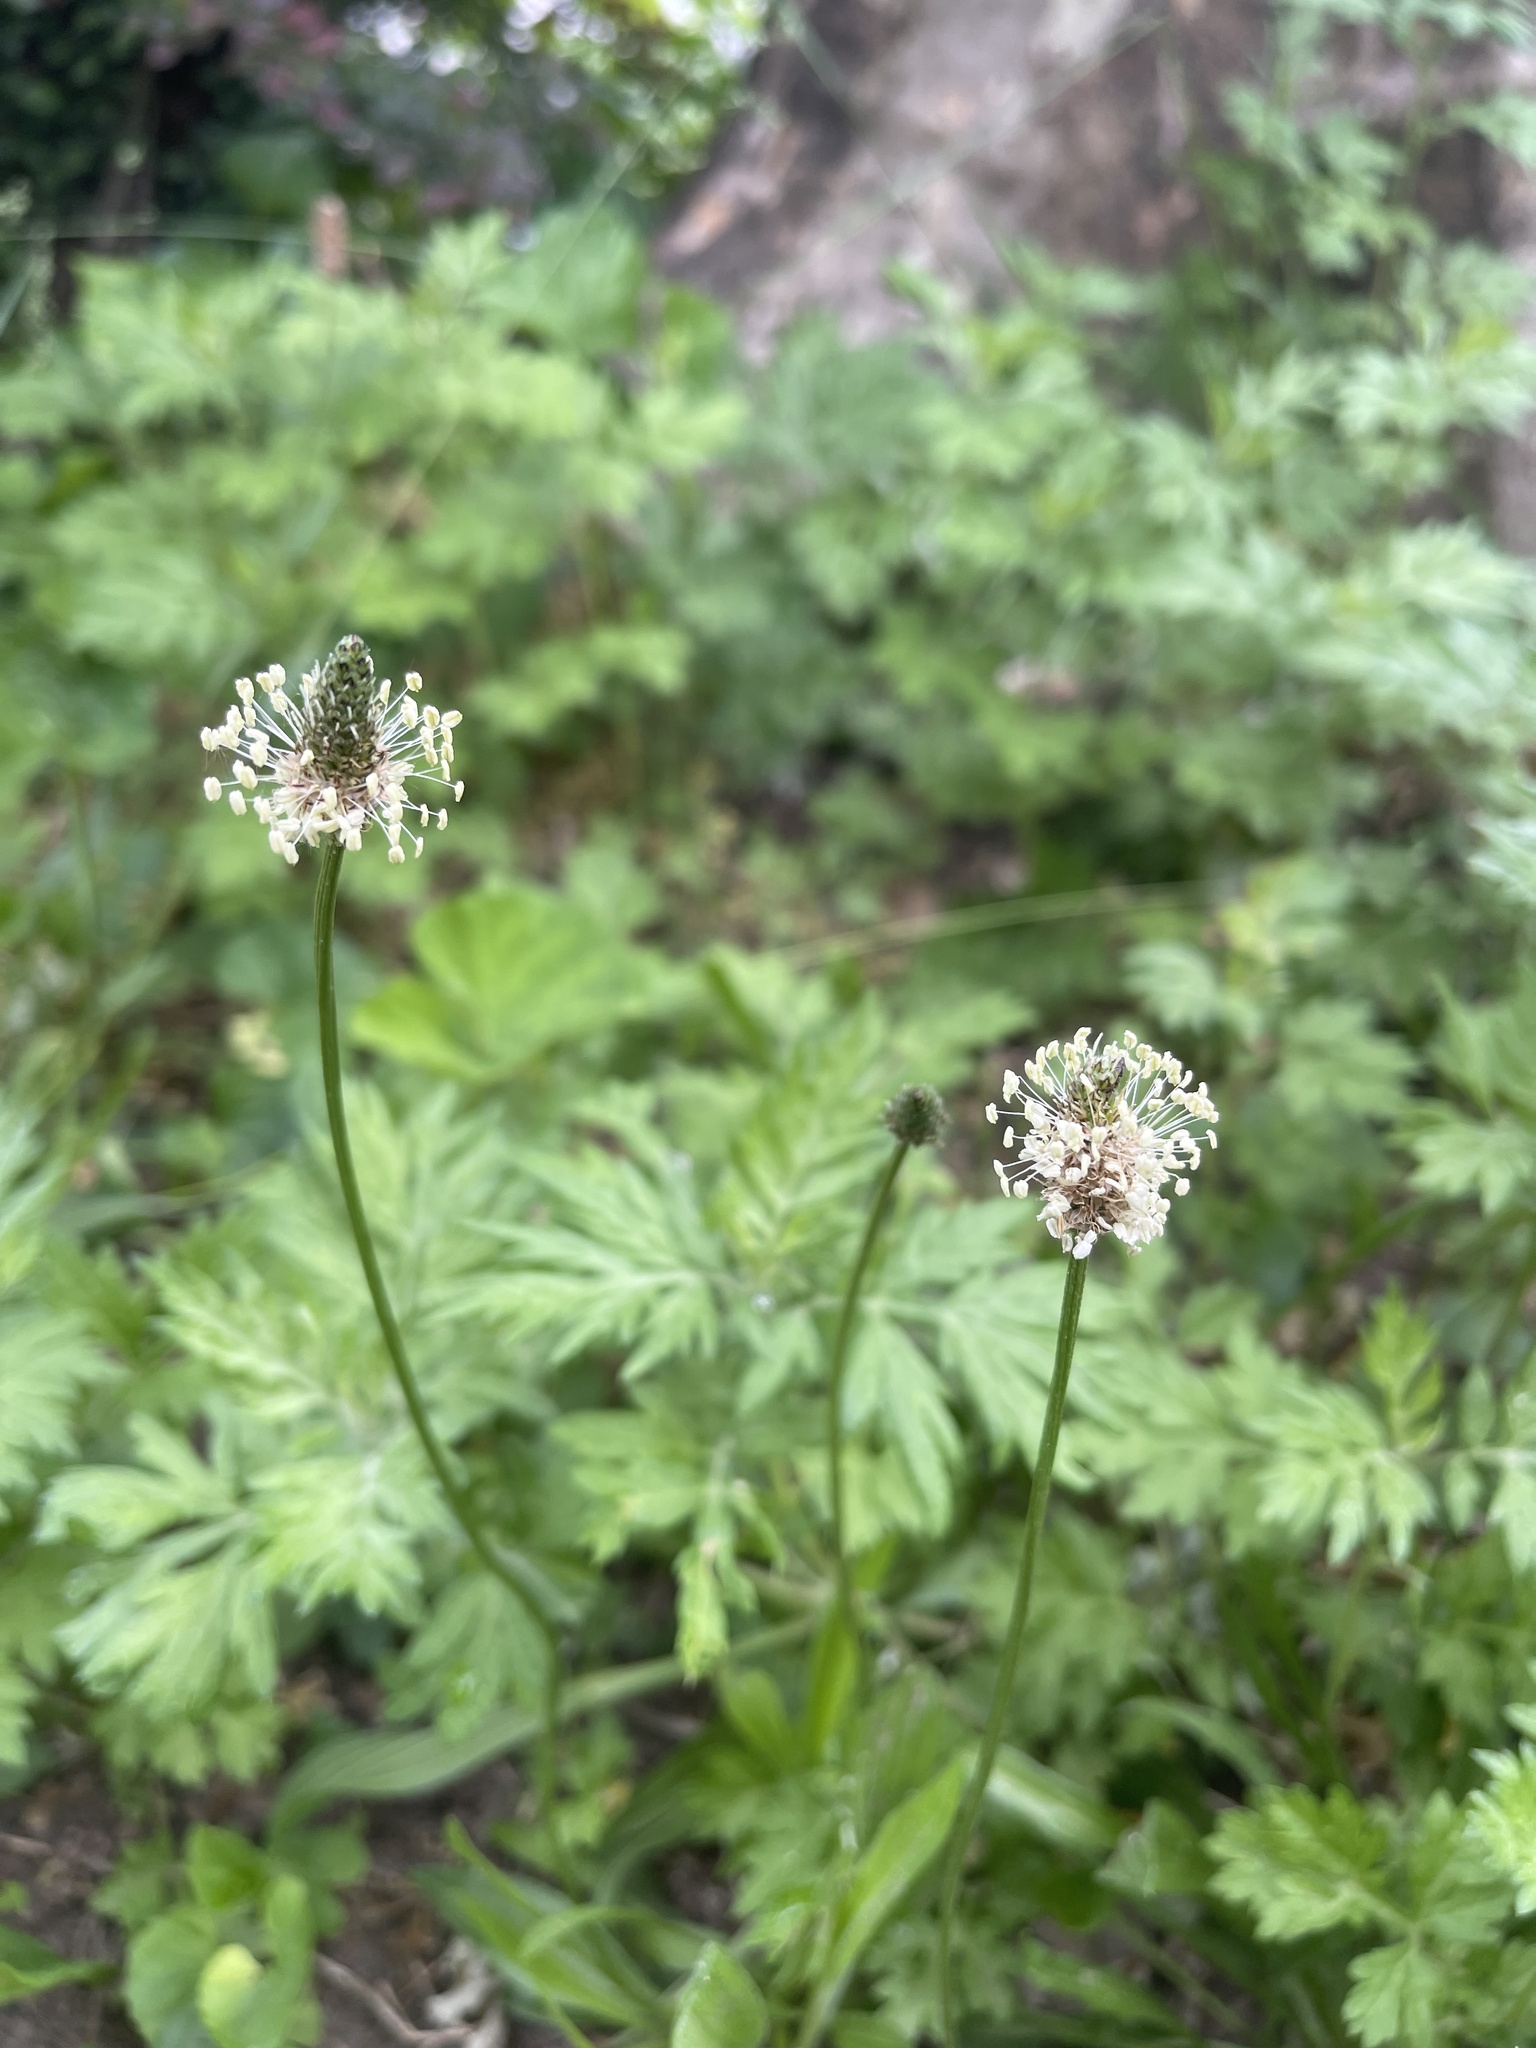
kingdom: Plantae
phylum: Tracheophyta
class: Magnoliopsida
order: Lamiales
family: Plantaginaceae
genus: Plantago
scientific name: Plantago lanceolata
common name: Ribwort plantain
